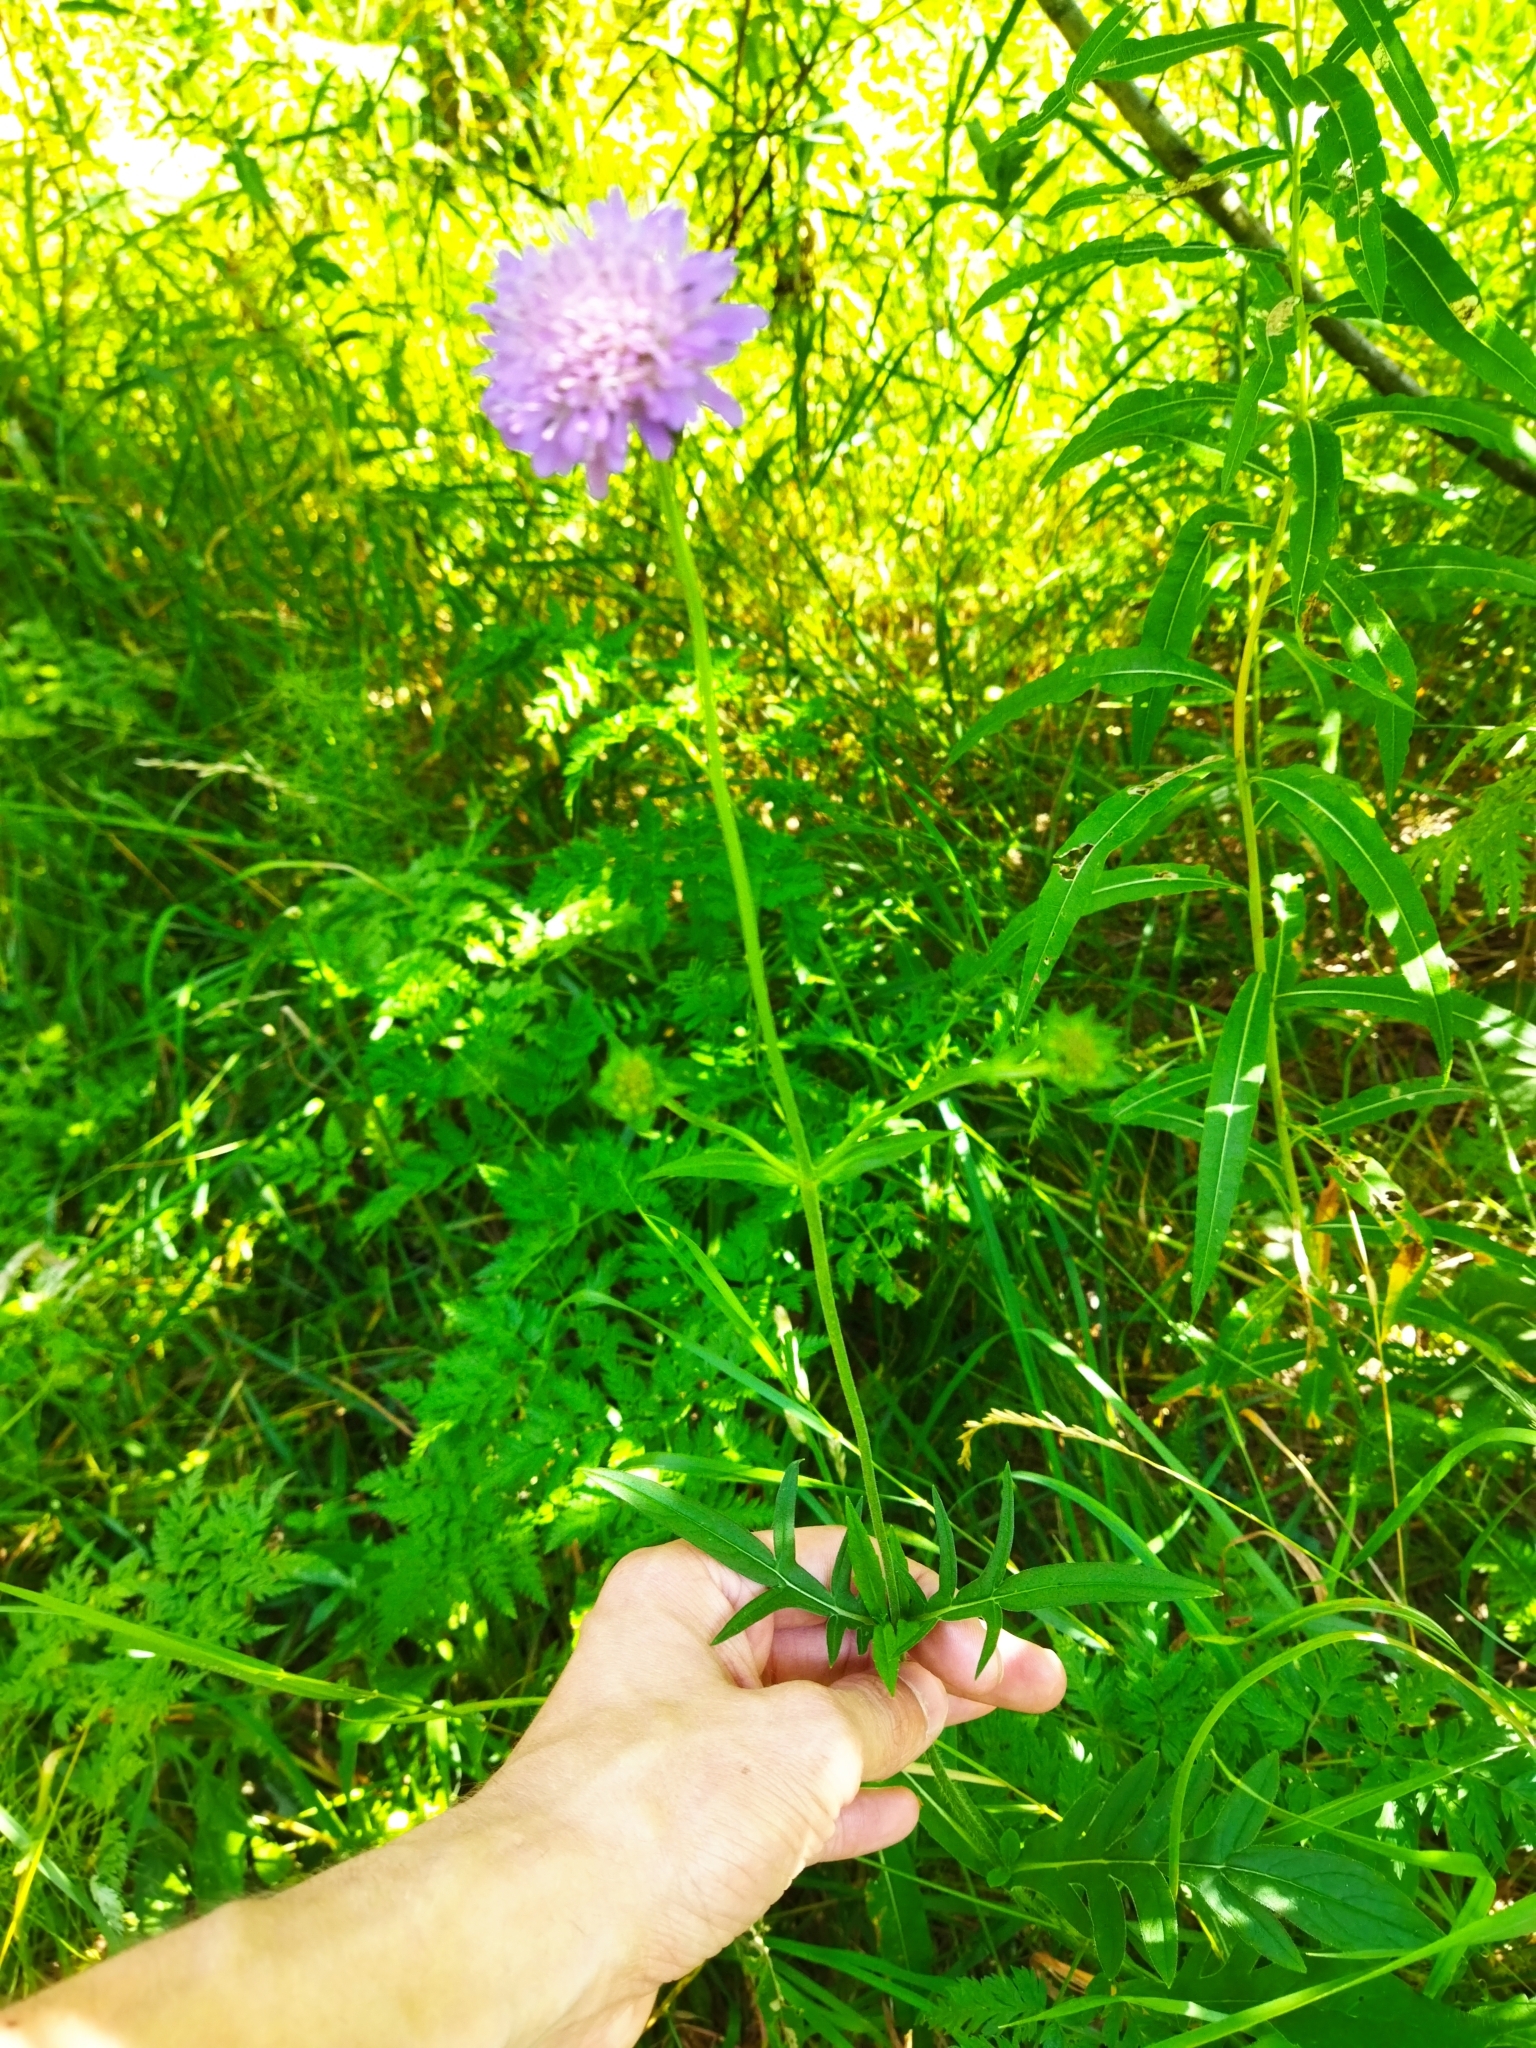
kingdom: Plantae
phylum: Tracheophyta
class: Magnoliopsida
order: Dipsacales
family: Caprifoliaceae
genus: Knautia
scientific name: Knautia arvensis
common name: Field scabiosa
